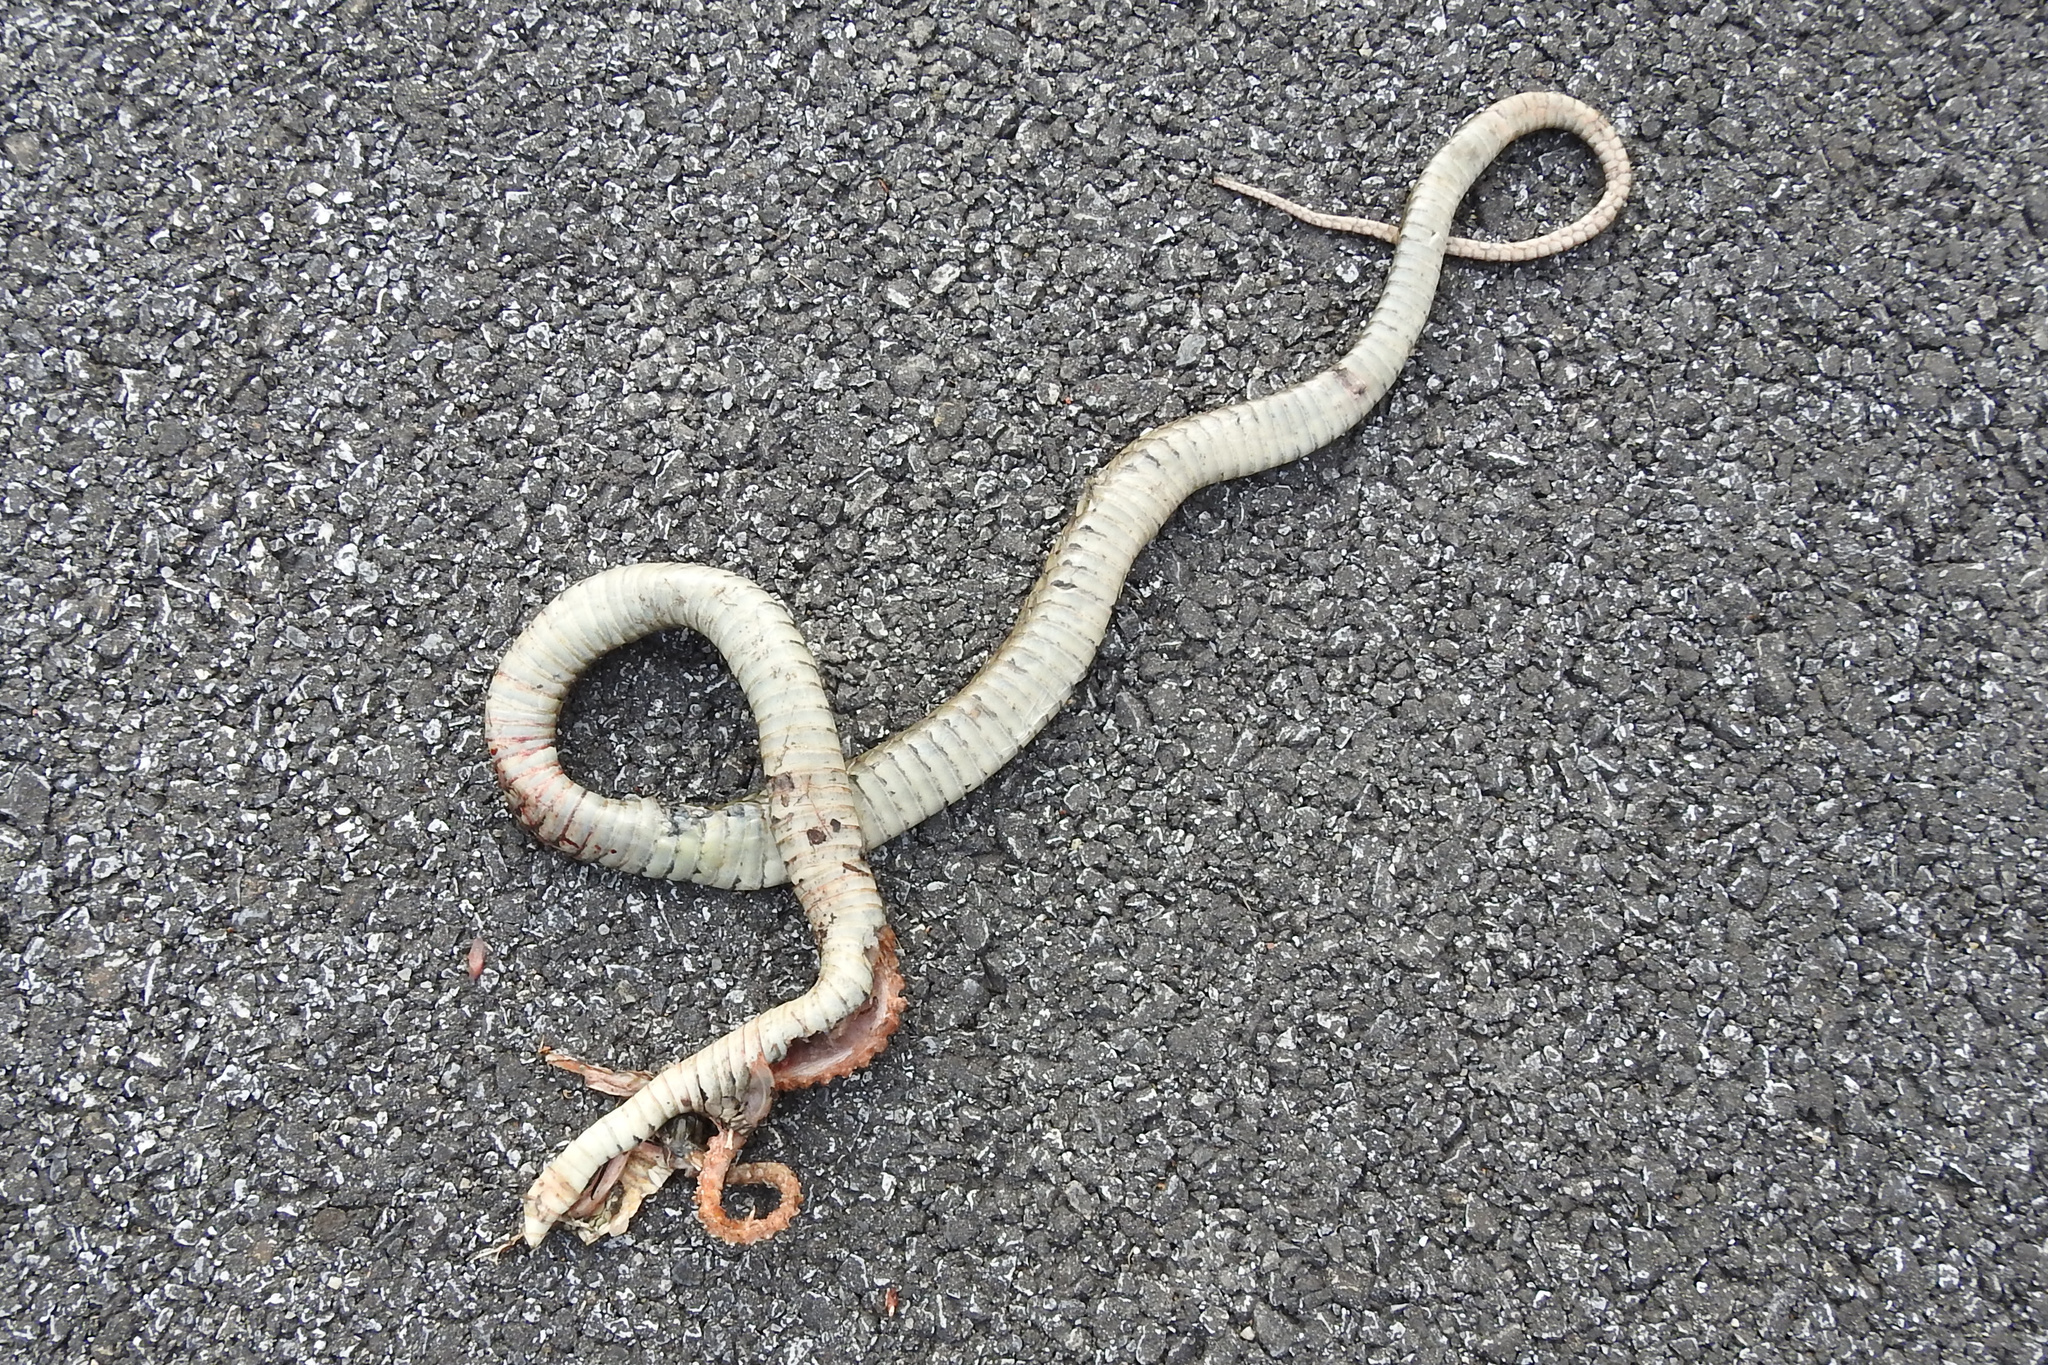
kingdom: Animalia
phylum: Chordata
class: Squamata
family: Colubridae
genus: Thamnophis
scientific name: Thamnophis sirtalis
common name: Common garter snake
